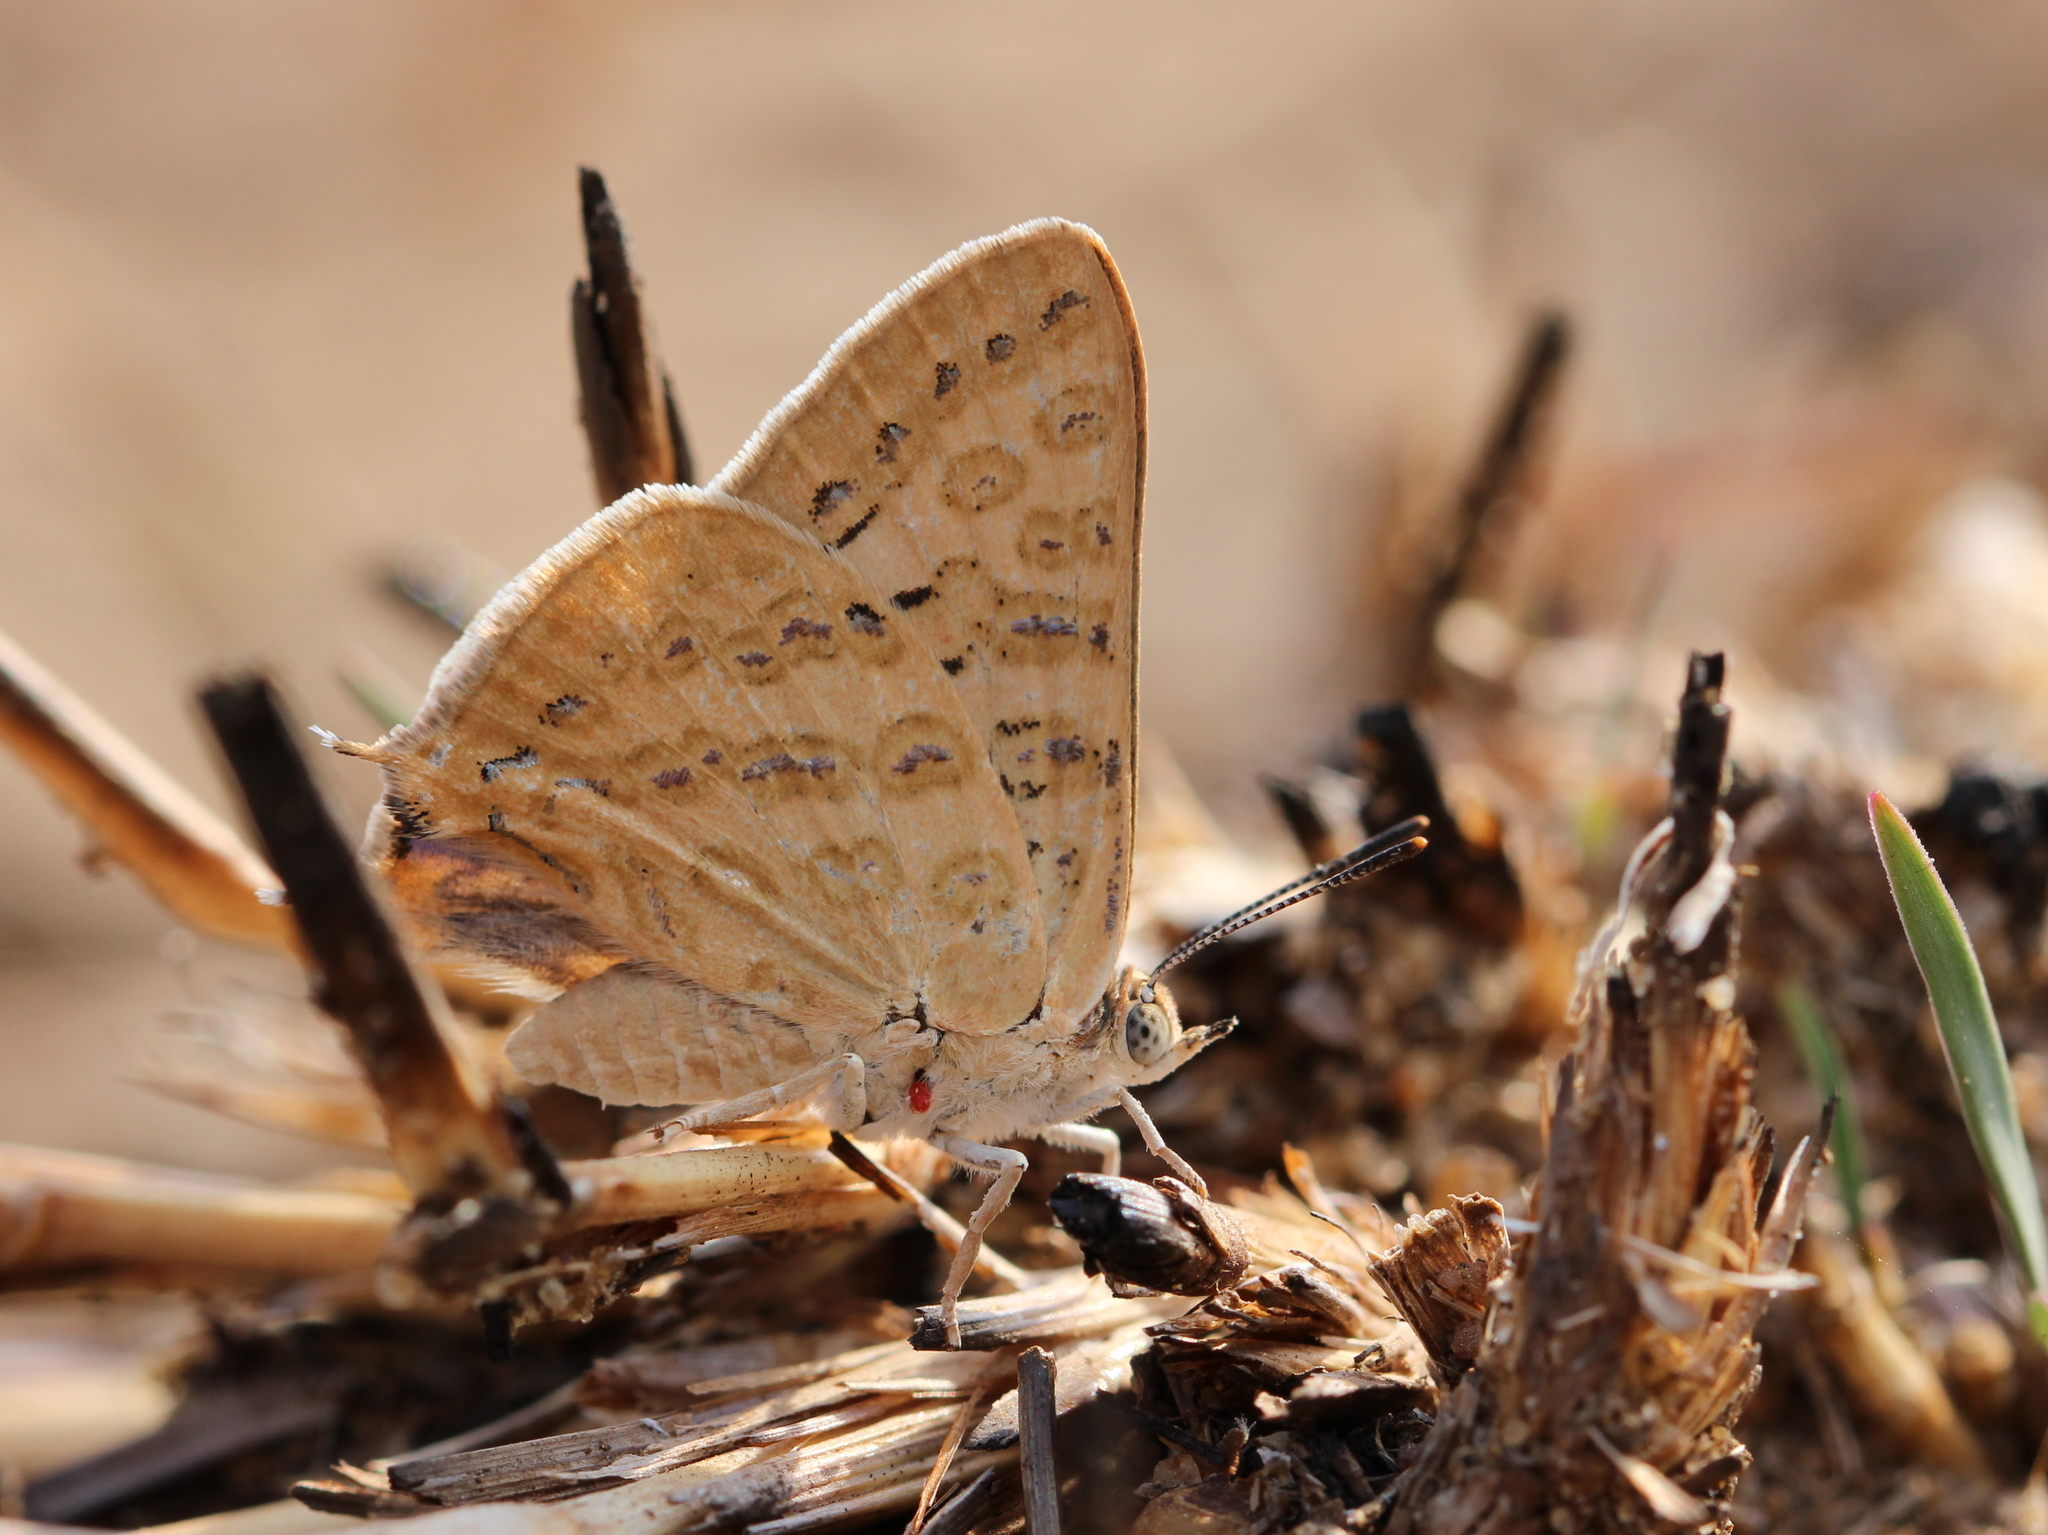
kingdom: Animalia
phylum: Arthropoda
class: Insecta
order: Lepidoptera
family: Lycaenidae
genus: Aphnaeus
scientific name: Aphnaeus lilacinus
